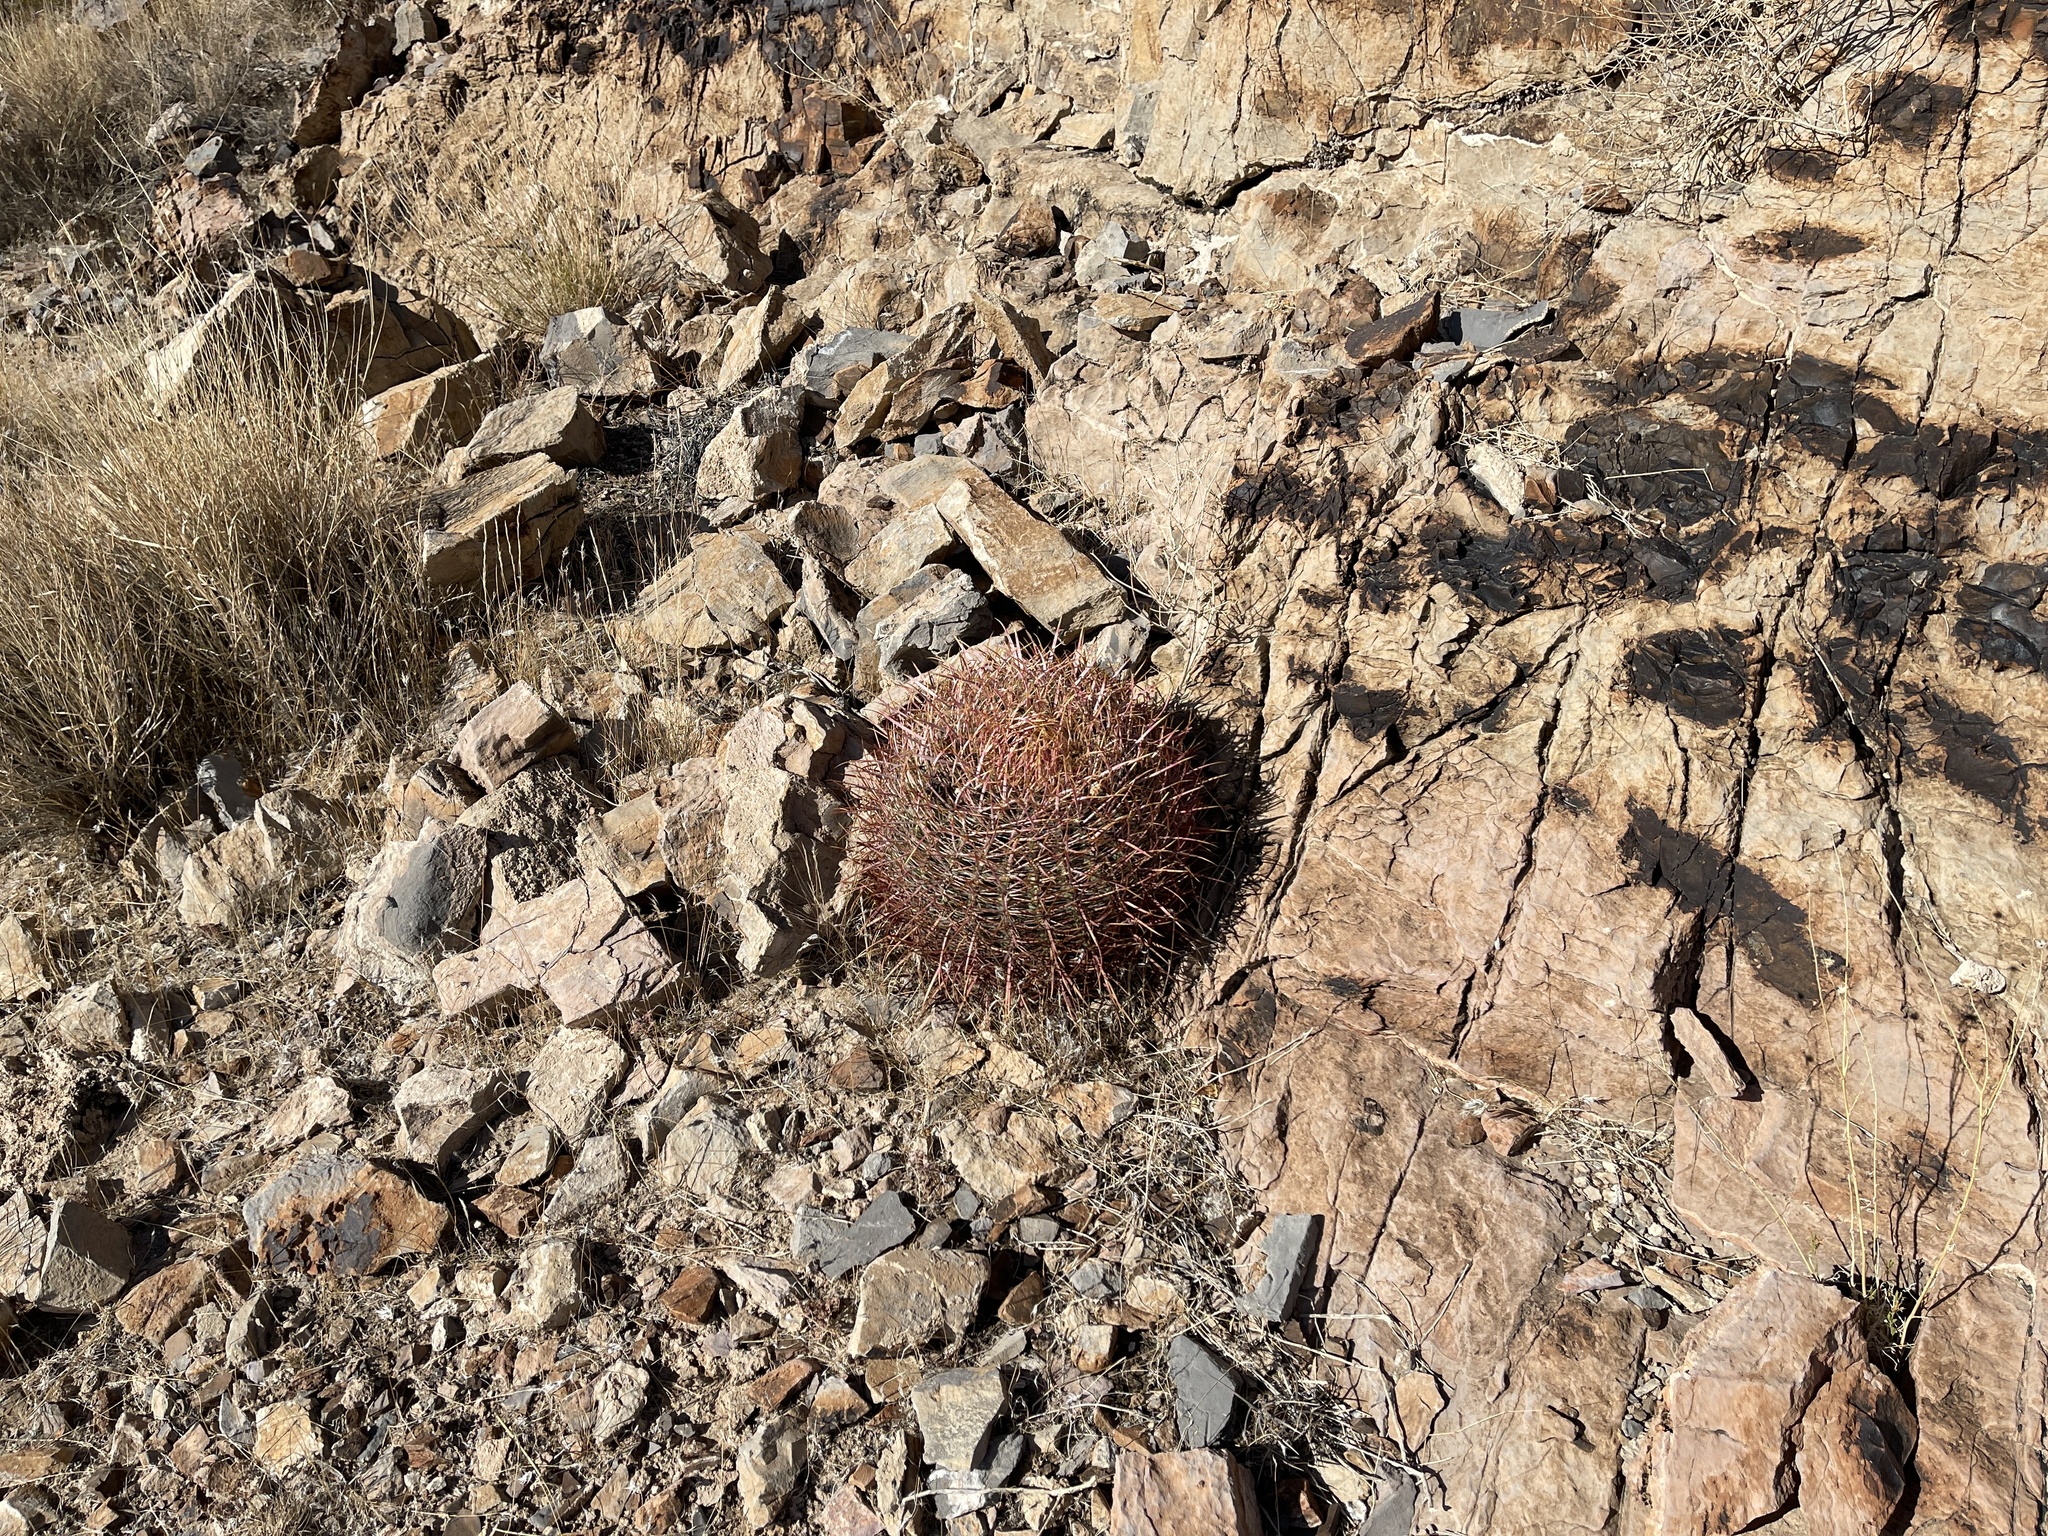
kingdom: Plantae
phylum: Tracheophyta
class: Magnoliopsida
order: Caryophyllales
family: Cactaceae
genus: Ferocactus
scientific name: Ferocactus cylindraceus
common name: California barrel cactus
